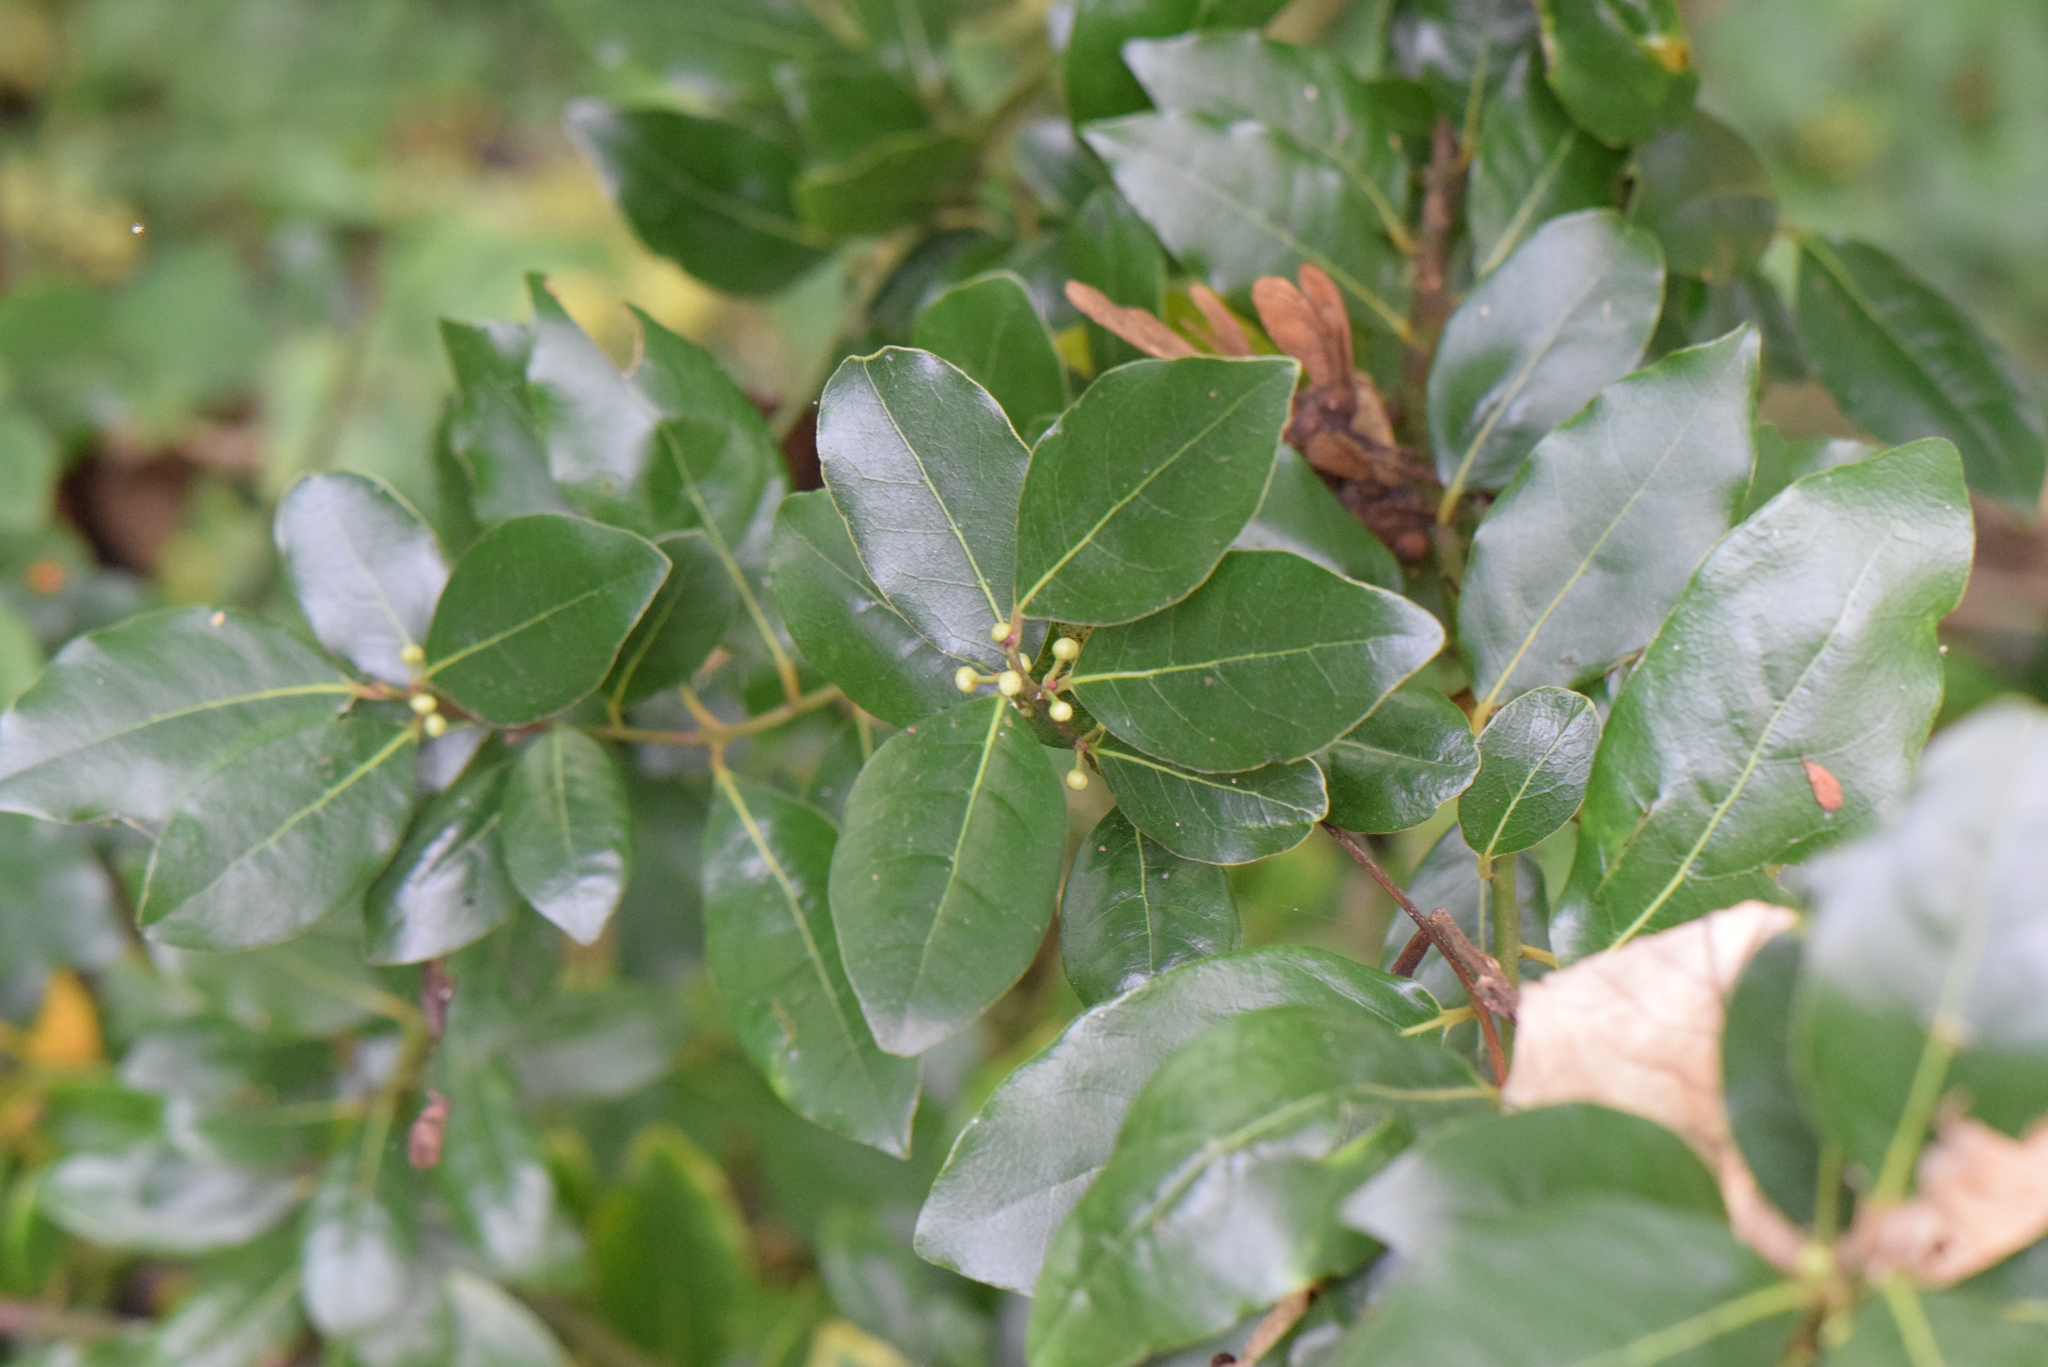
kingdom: Plantae
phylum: Tracheophyta
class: Magnoliopsida
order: Laurales
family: Lauraceae
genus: Laurus
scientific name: Laurus nobilis
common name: Bay
